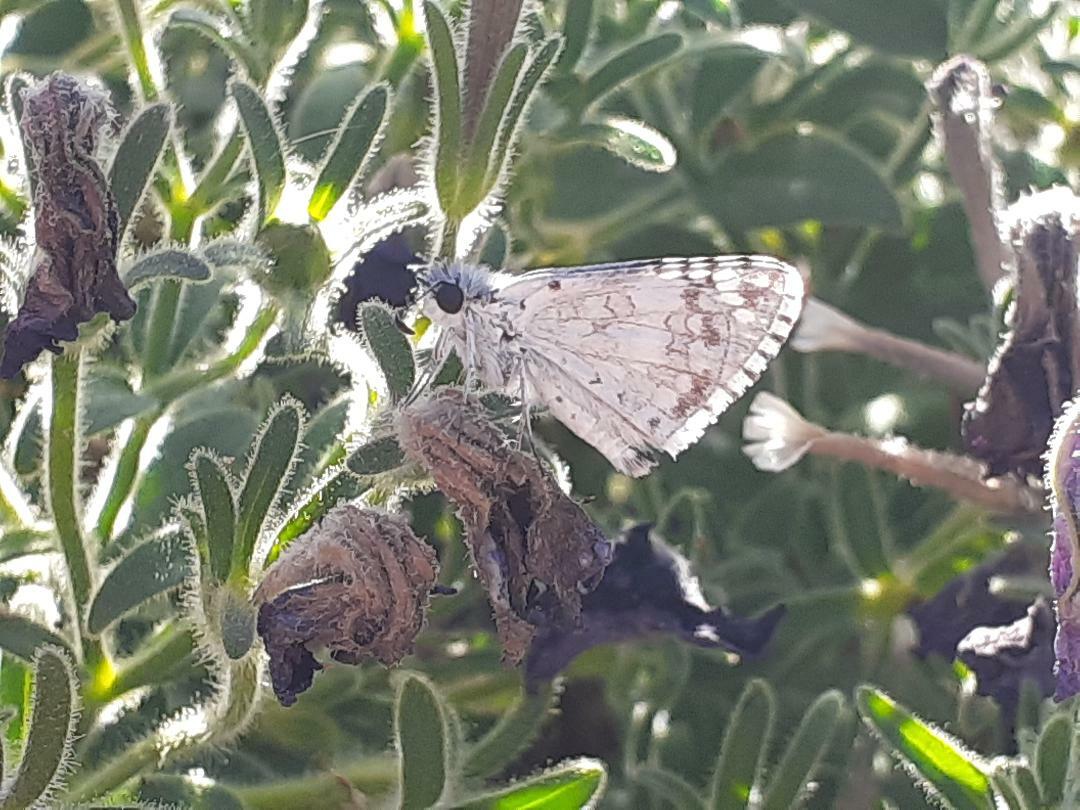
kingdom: Animalia
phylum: Arthropoda
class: Insecta
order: Lepidoptera
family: Hesperiidae
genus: Burnsius
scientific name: Burnsius communis
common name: Common checkered-skipper
